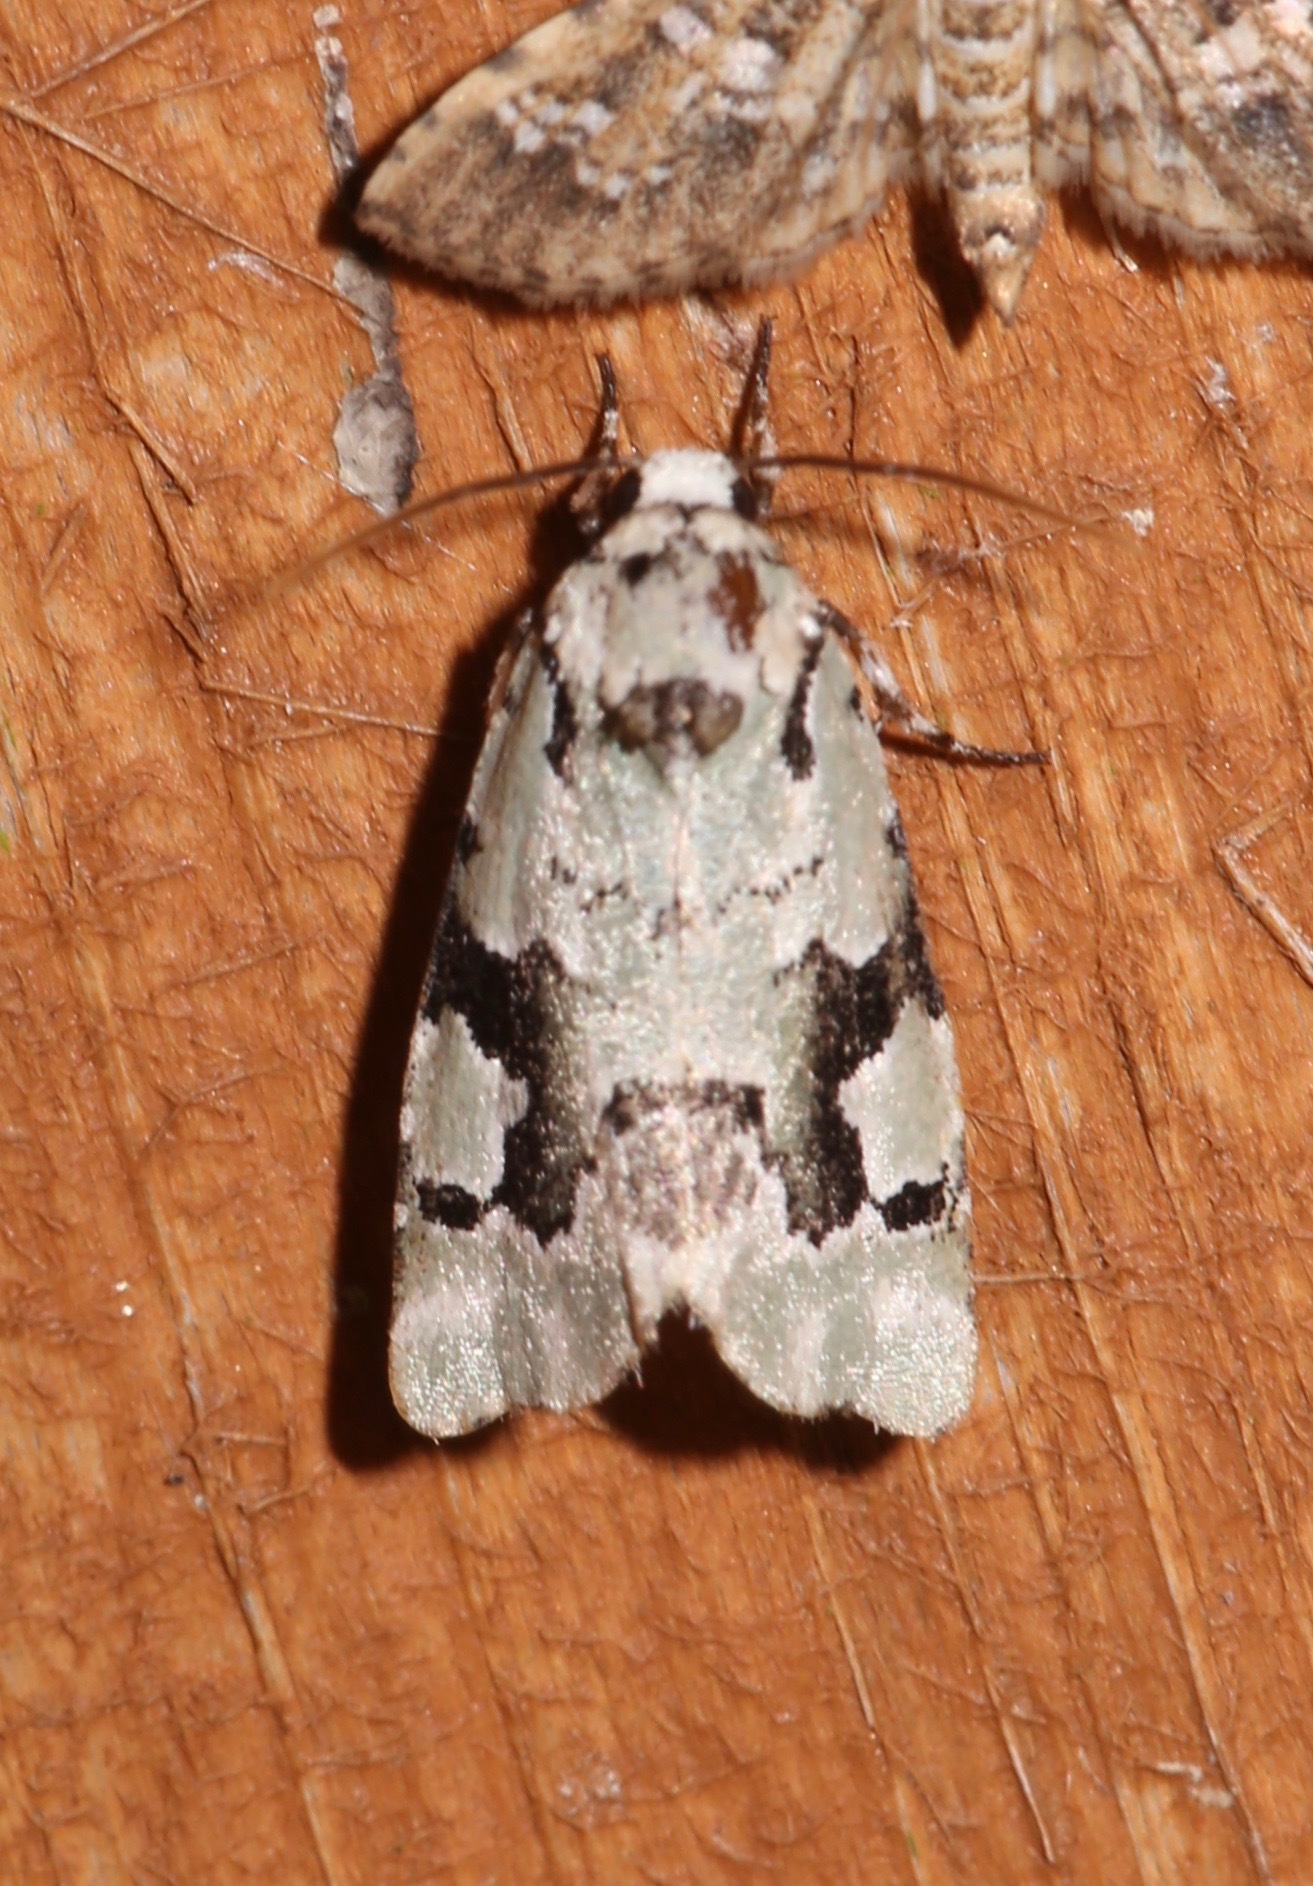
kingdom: Animalia
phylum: Arthropoda
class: Insecta
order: Lepidoptera
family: Noctuidae
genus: Emarginea
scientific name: Emarginea percara
